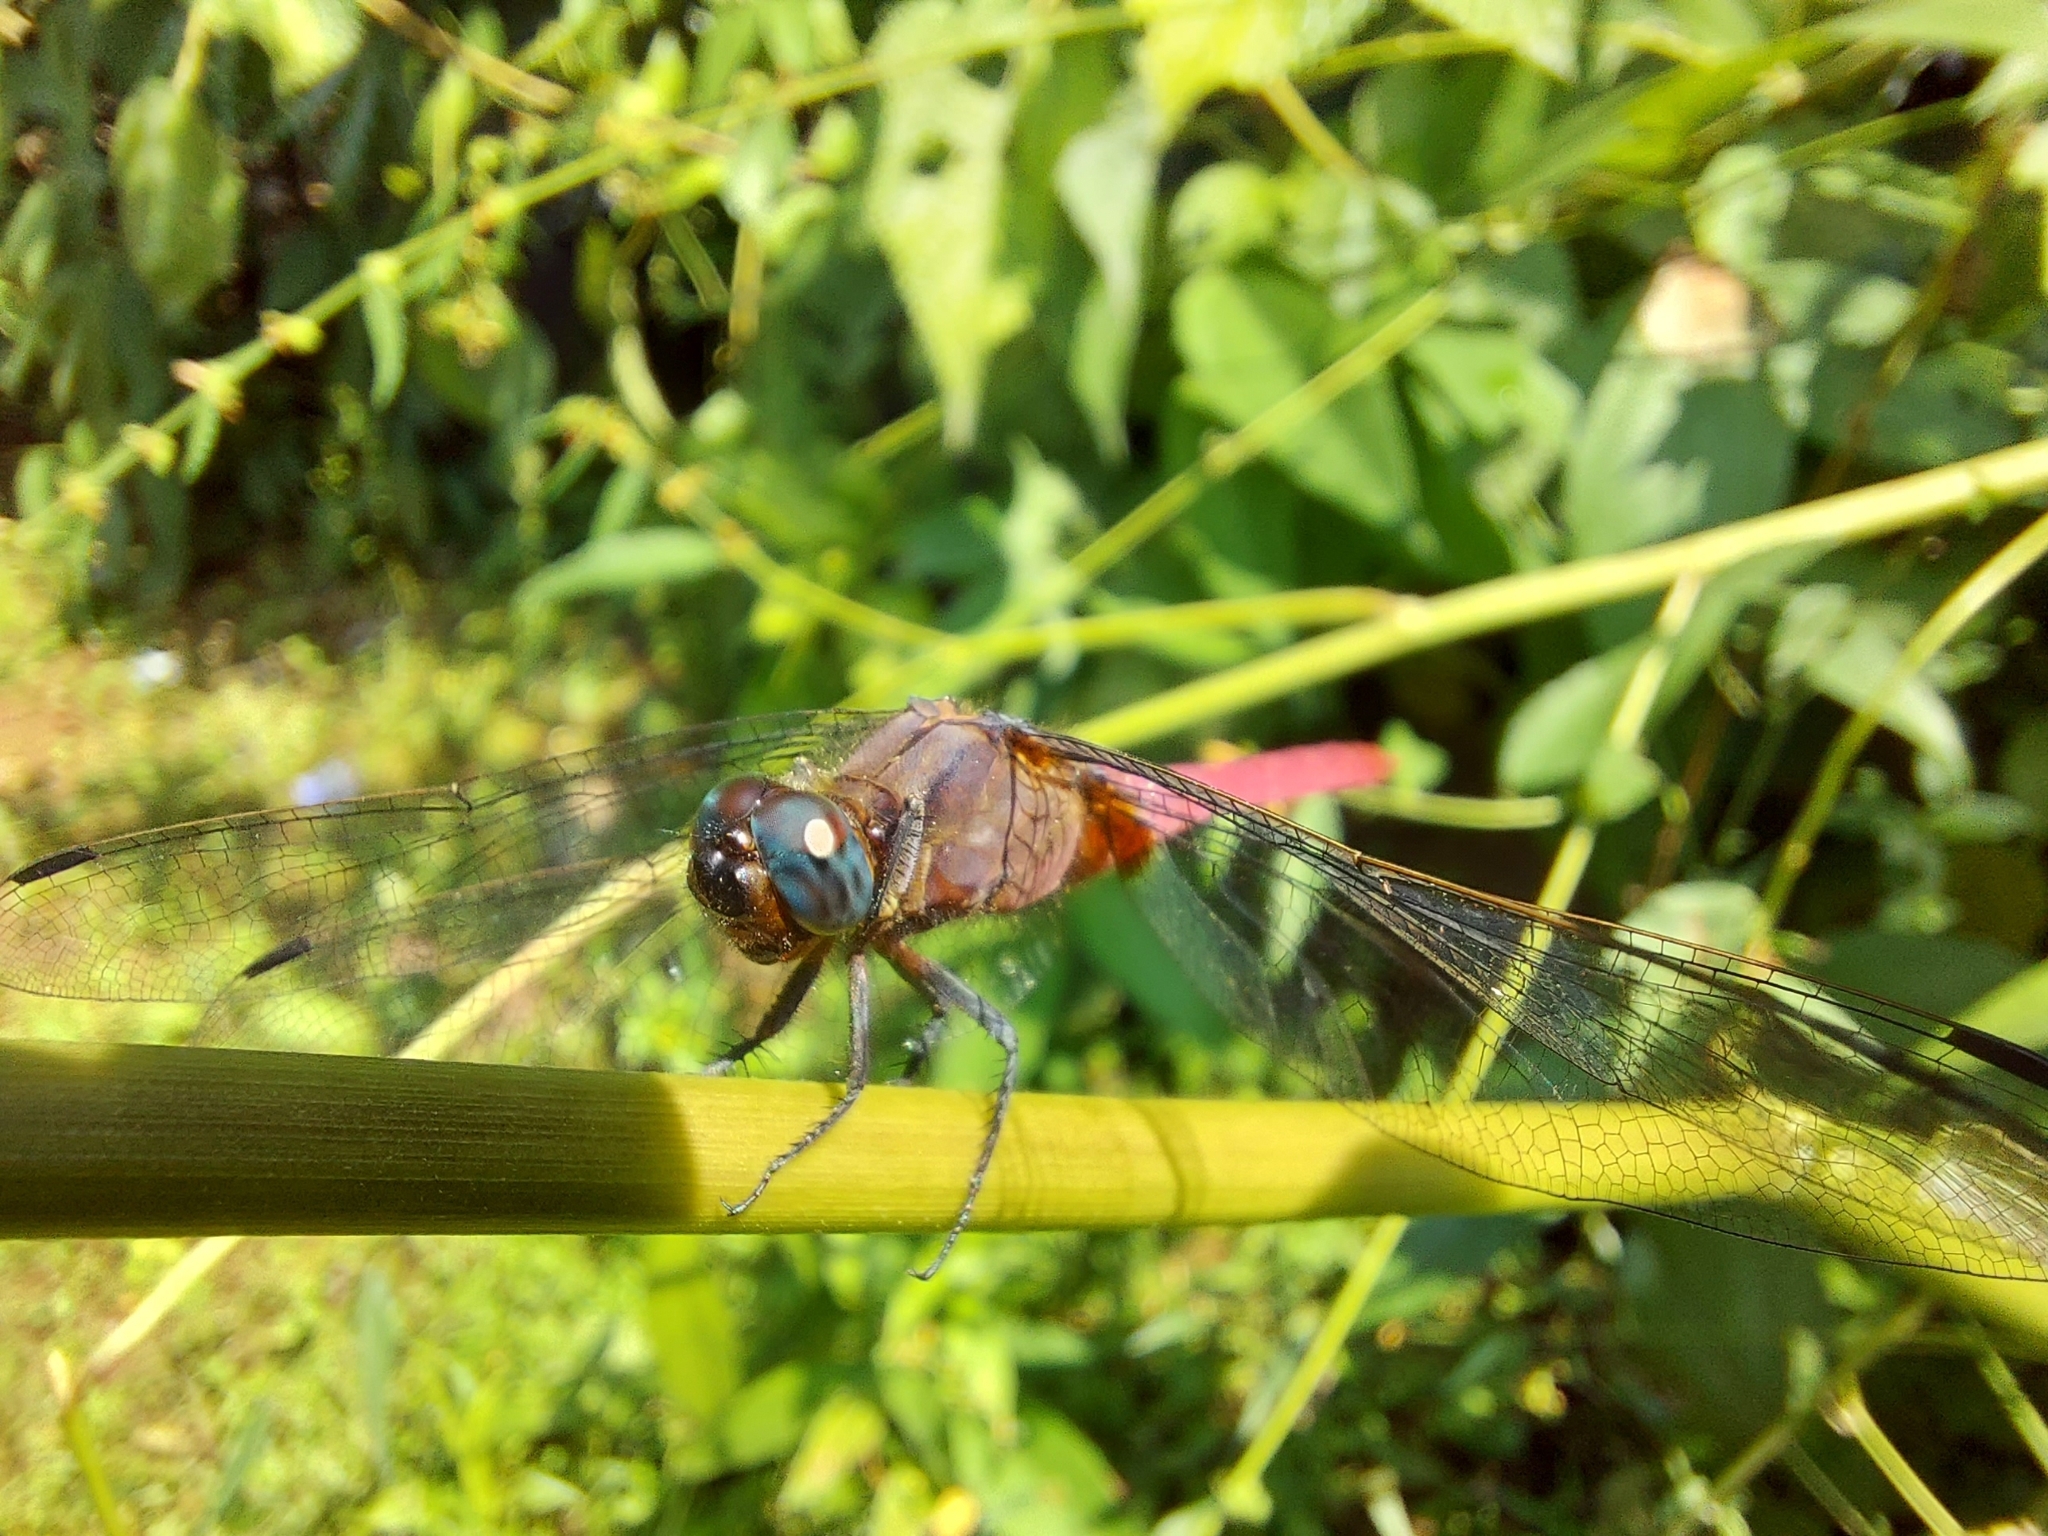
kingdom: Animalia
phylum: Arthropoda
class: Insecta
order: Odonata
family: Libellulidae
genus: Orthetrum
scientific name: Orthetrum pruinosum
